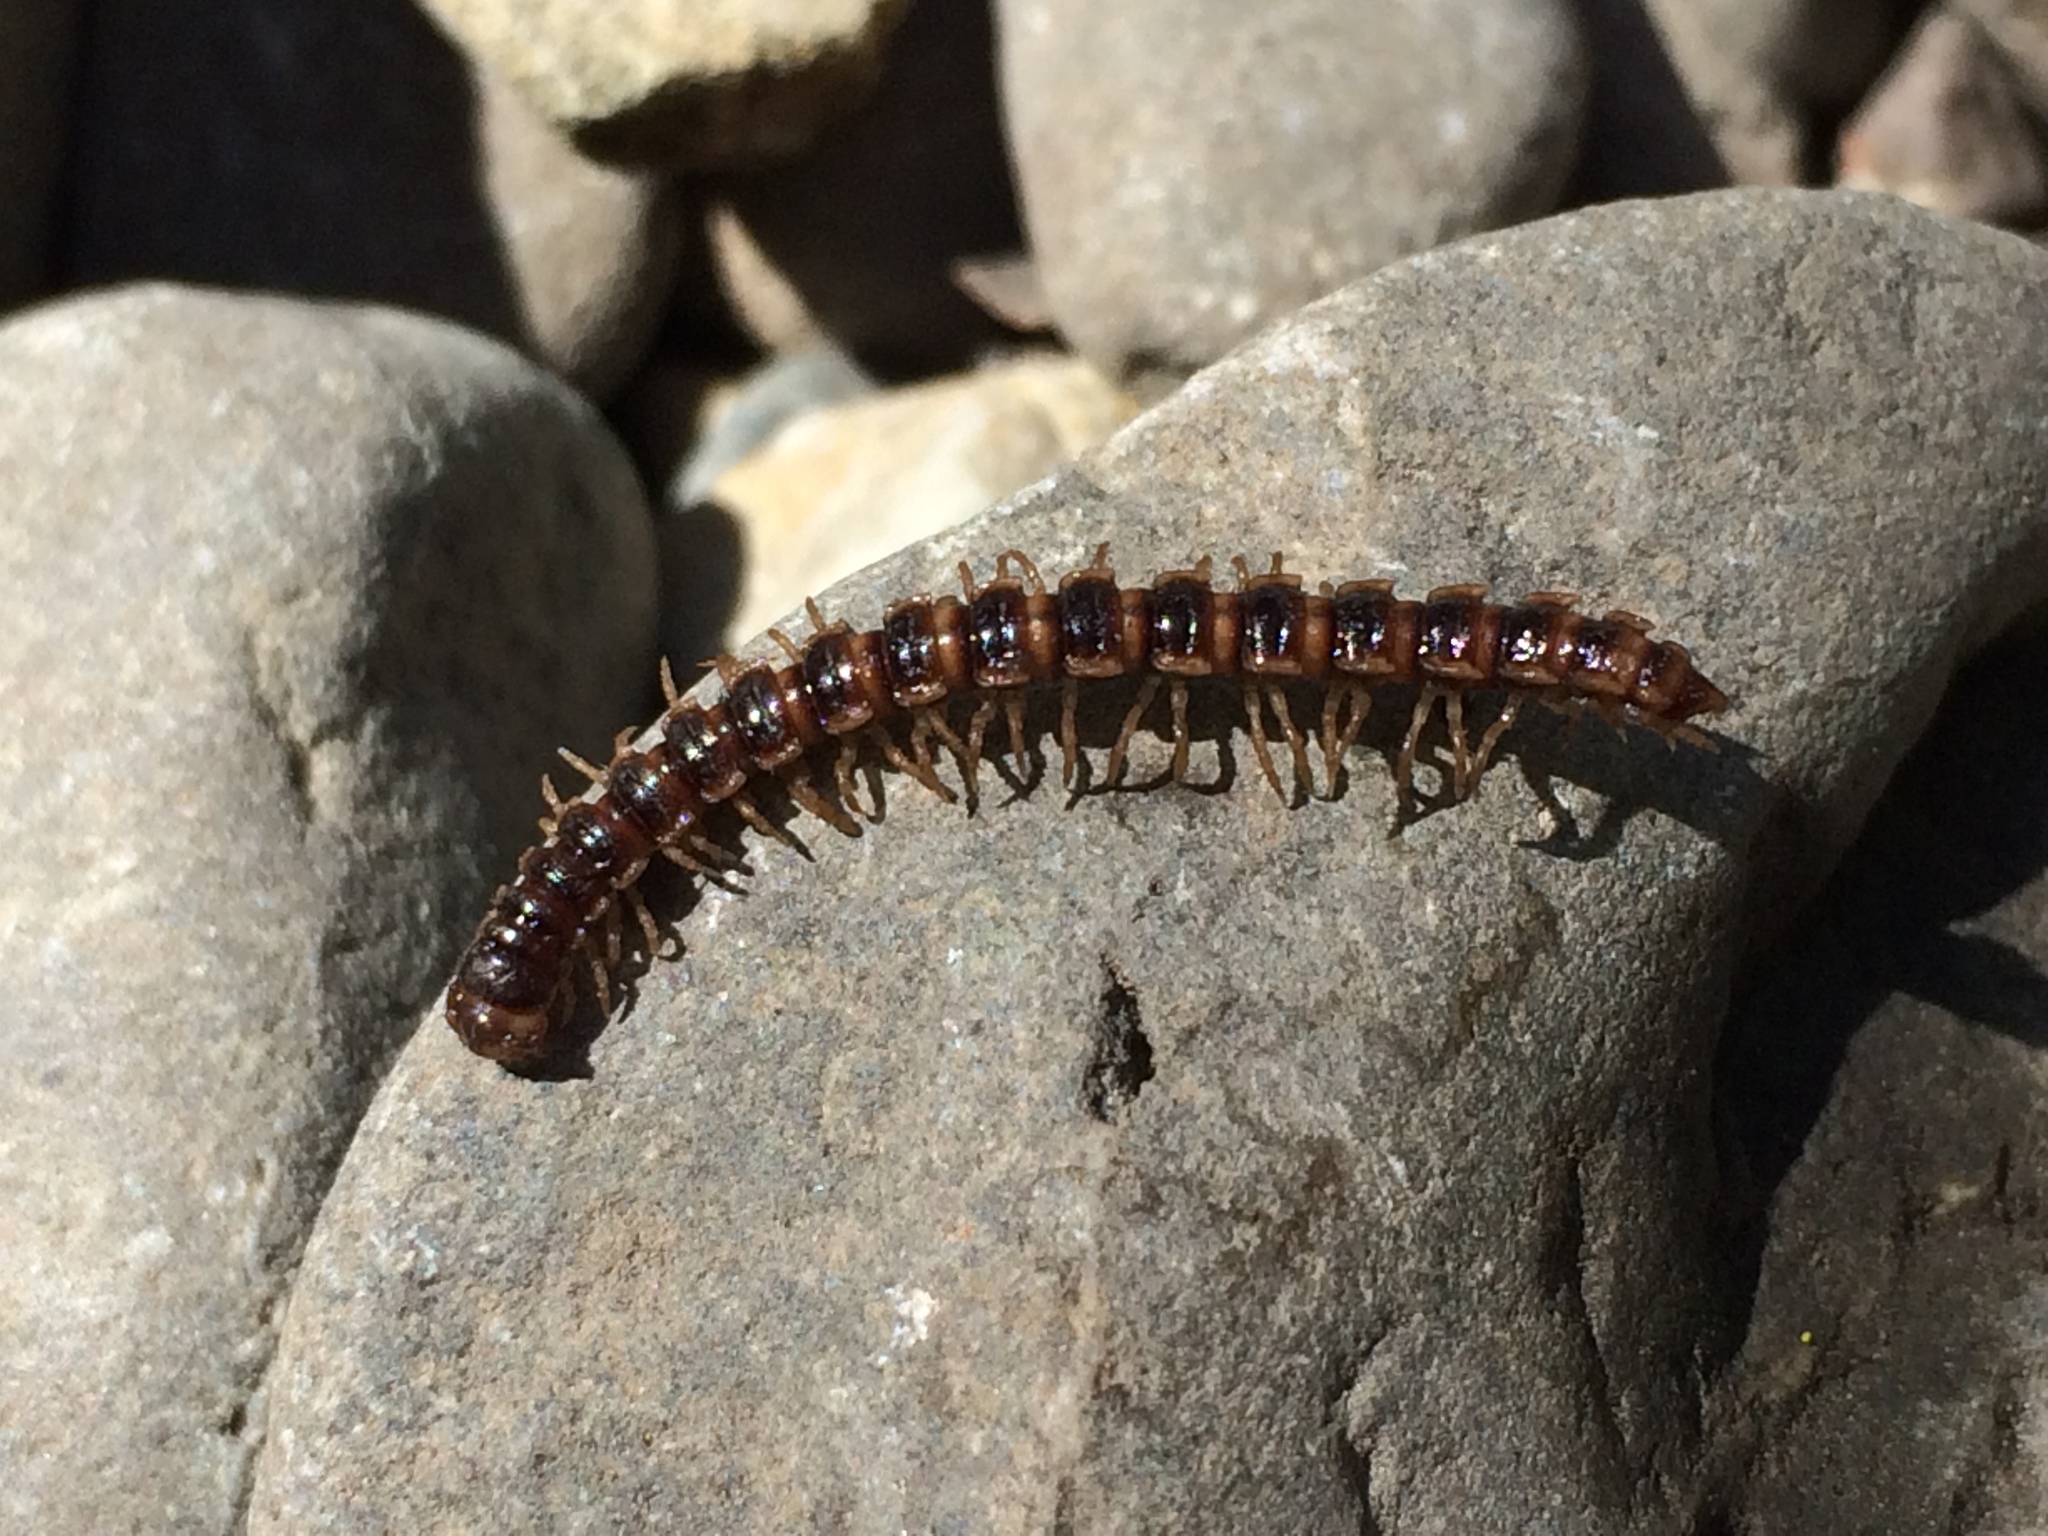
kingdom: Animalia
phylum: Arthropoda
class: Diplopoda
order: Polydesmida
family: Paradoxosomatidae
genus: Oxidus
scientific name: Oxidus gracilis
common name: Greenhouse millipede
